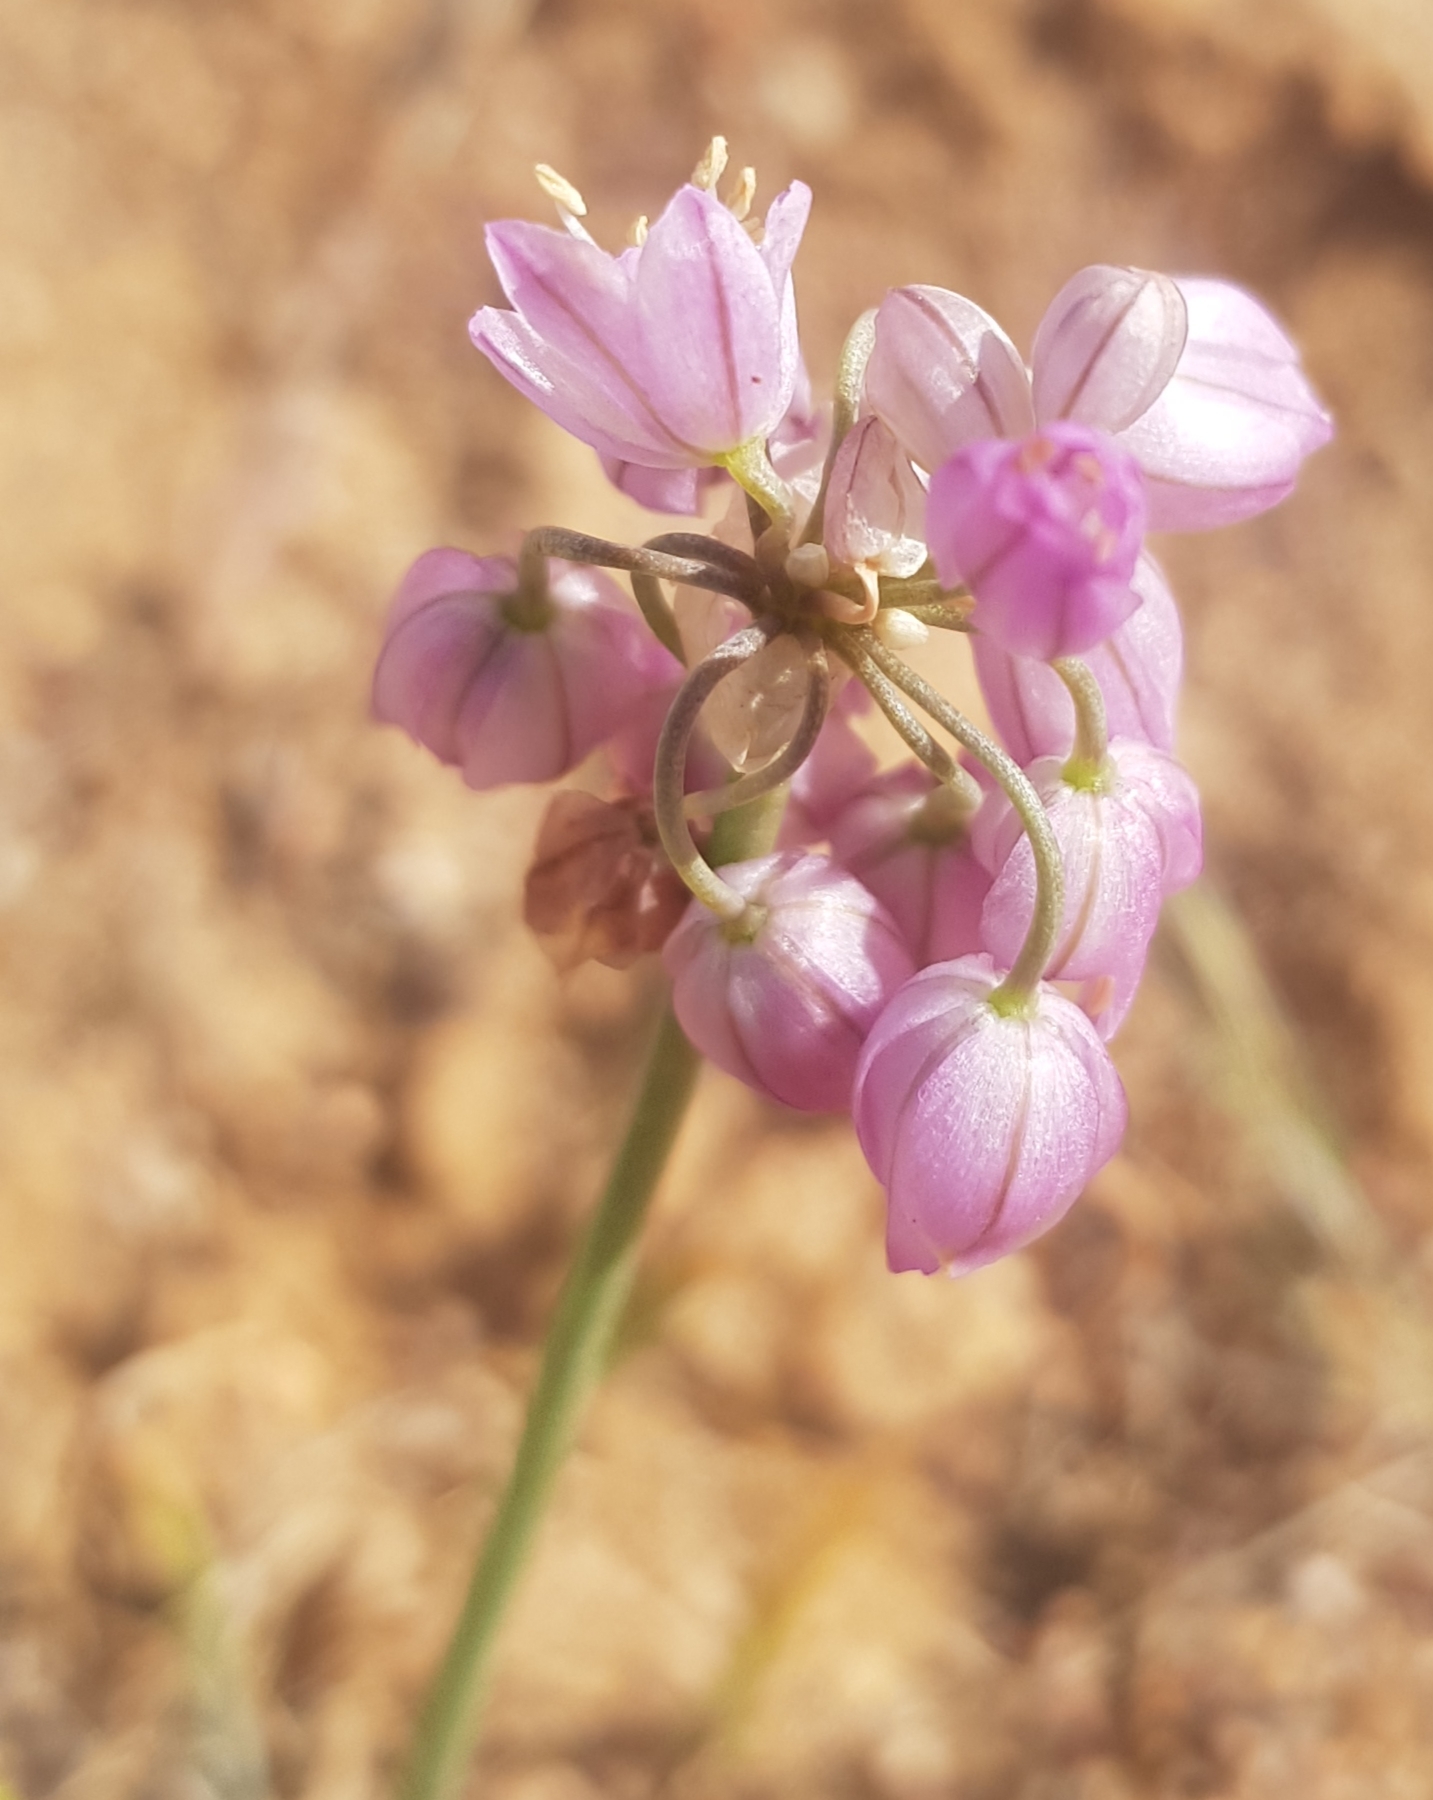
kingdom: Plantae
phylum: Tracheophyta
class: Liliopsida
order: Asparagales
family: Amaryllidaceae
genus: Allium
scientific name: Allium mongolicum
